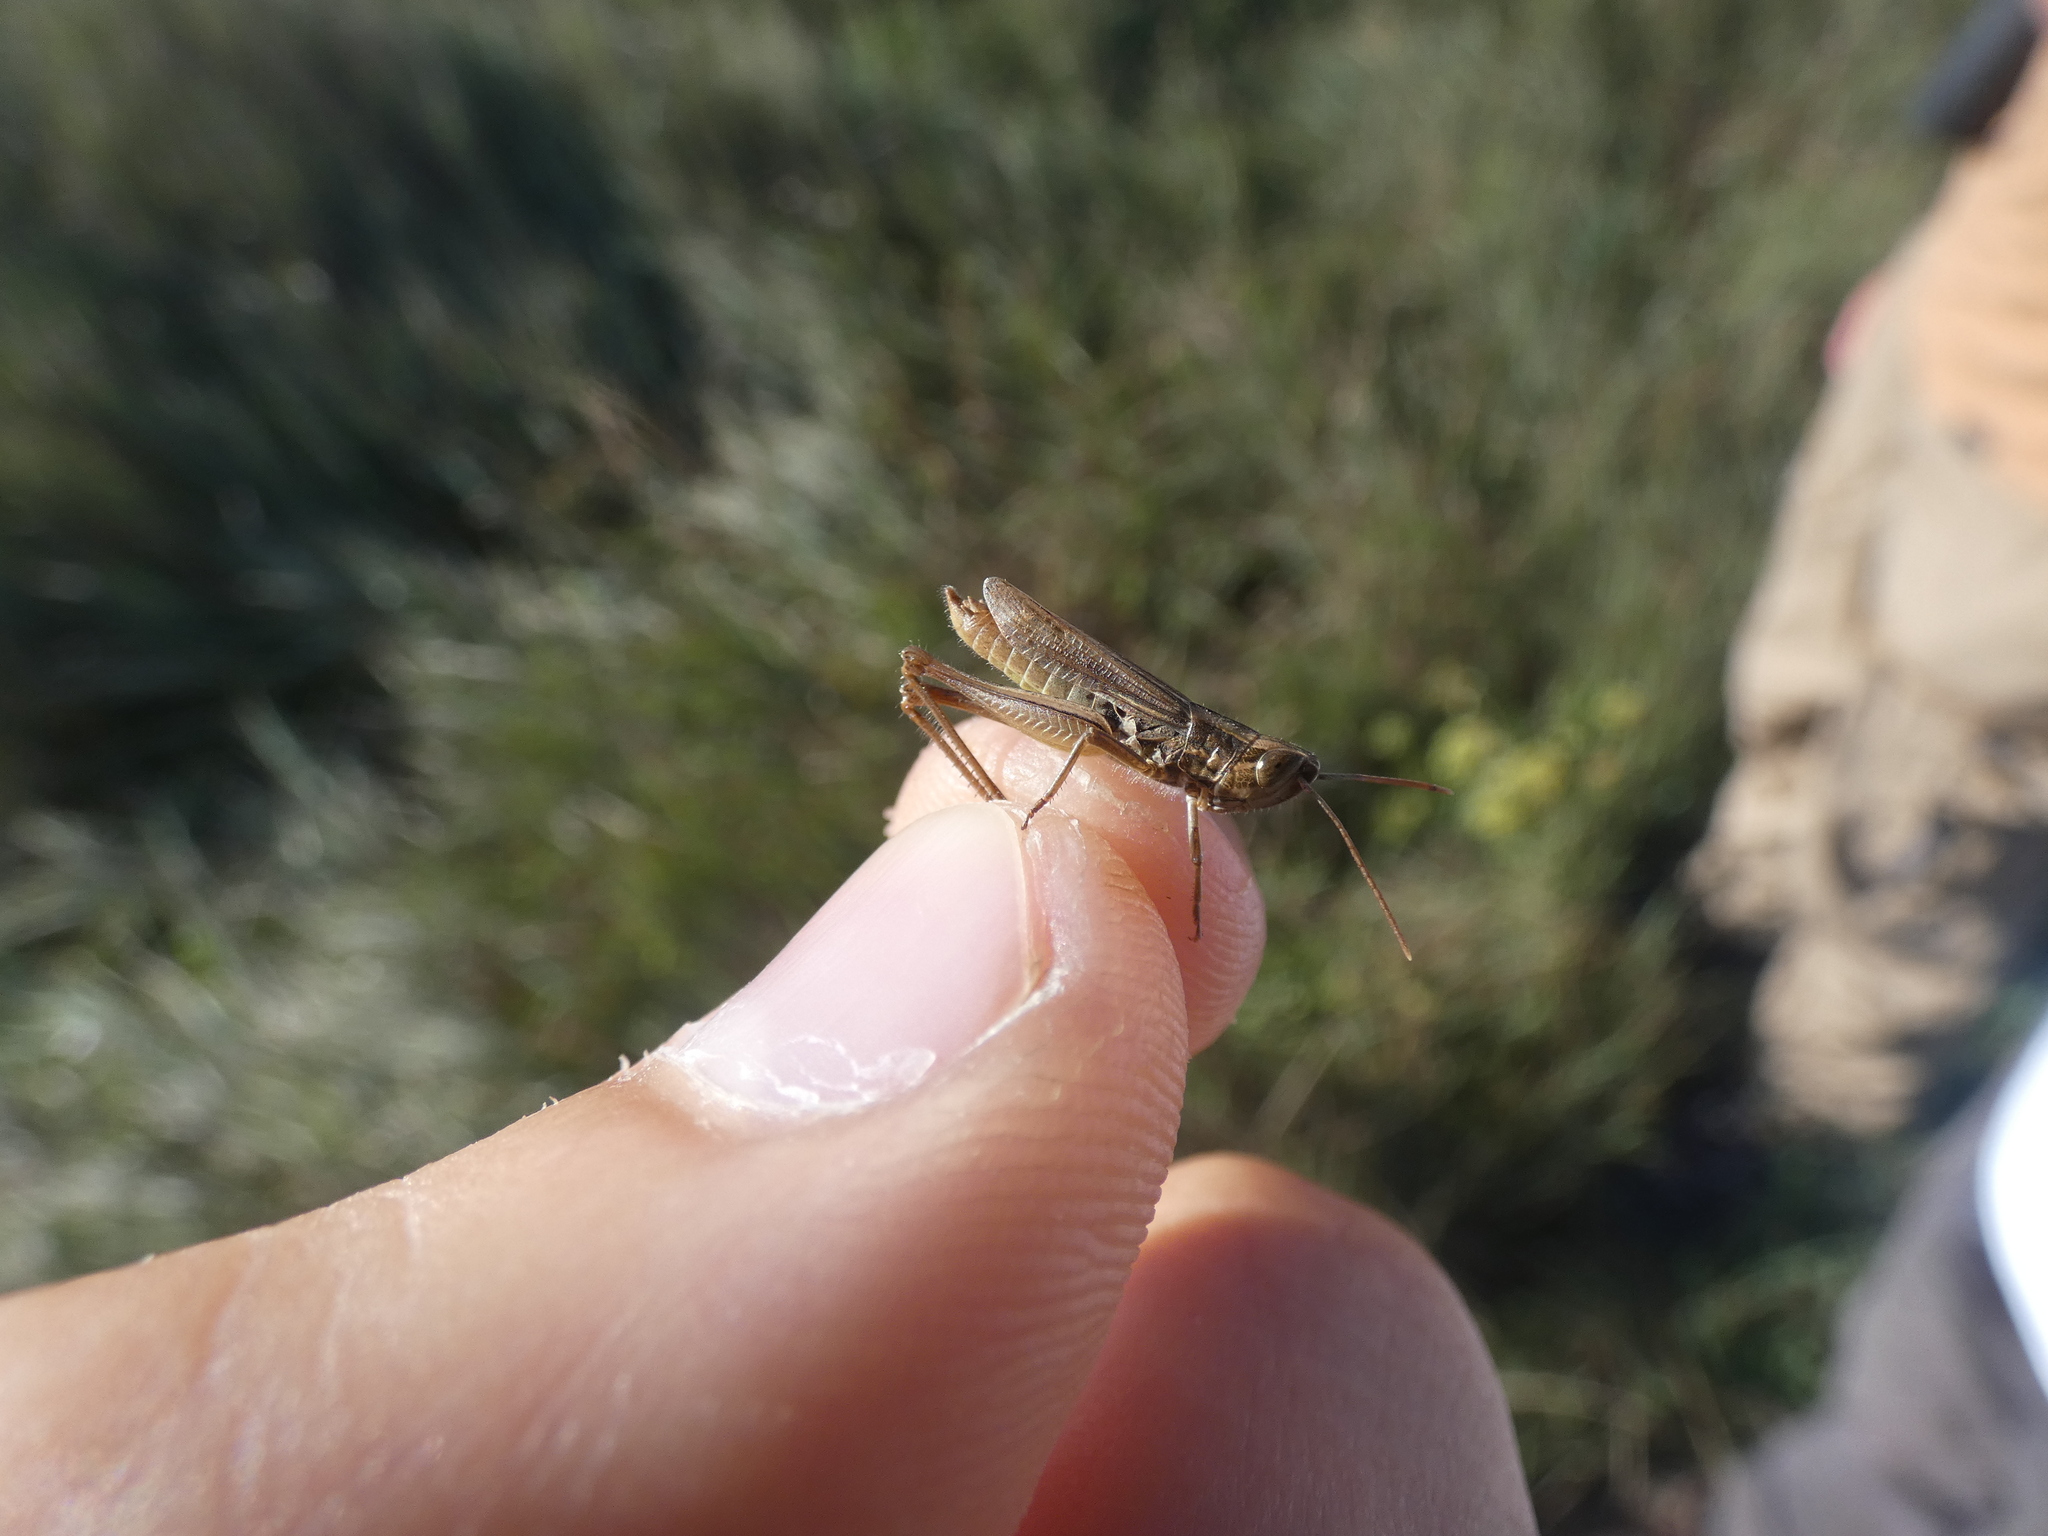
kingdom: Animalia
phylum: Arthropoda
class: Insecta
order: Orthoptera
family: Acrididae
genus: Euchorthippus
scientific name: Euchorthippus elegantulus
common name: Elegant straw grasshopper
